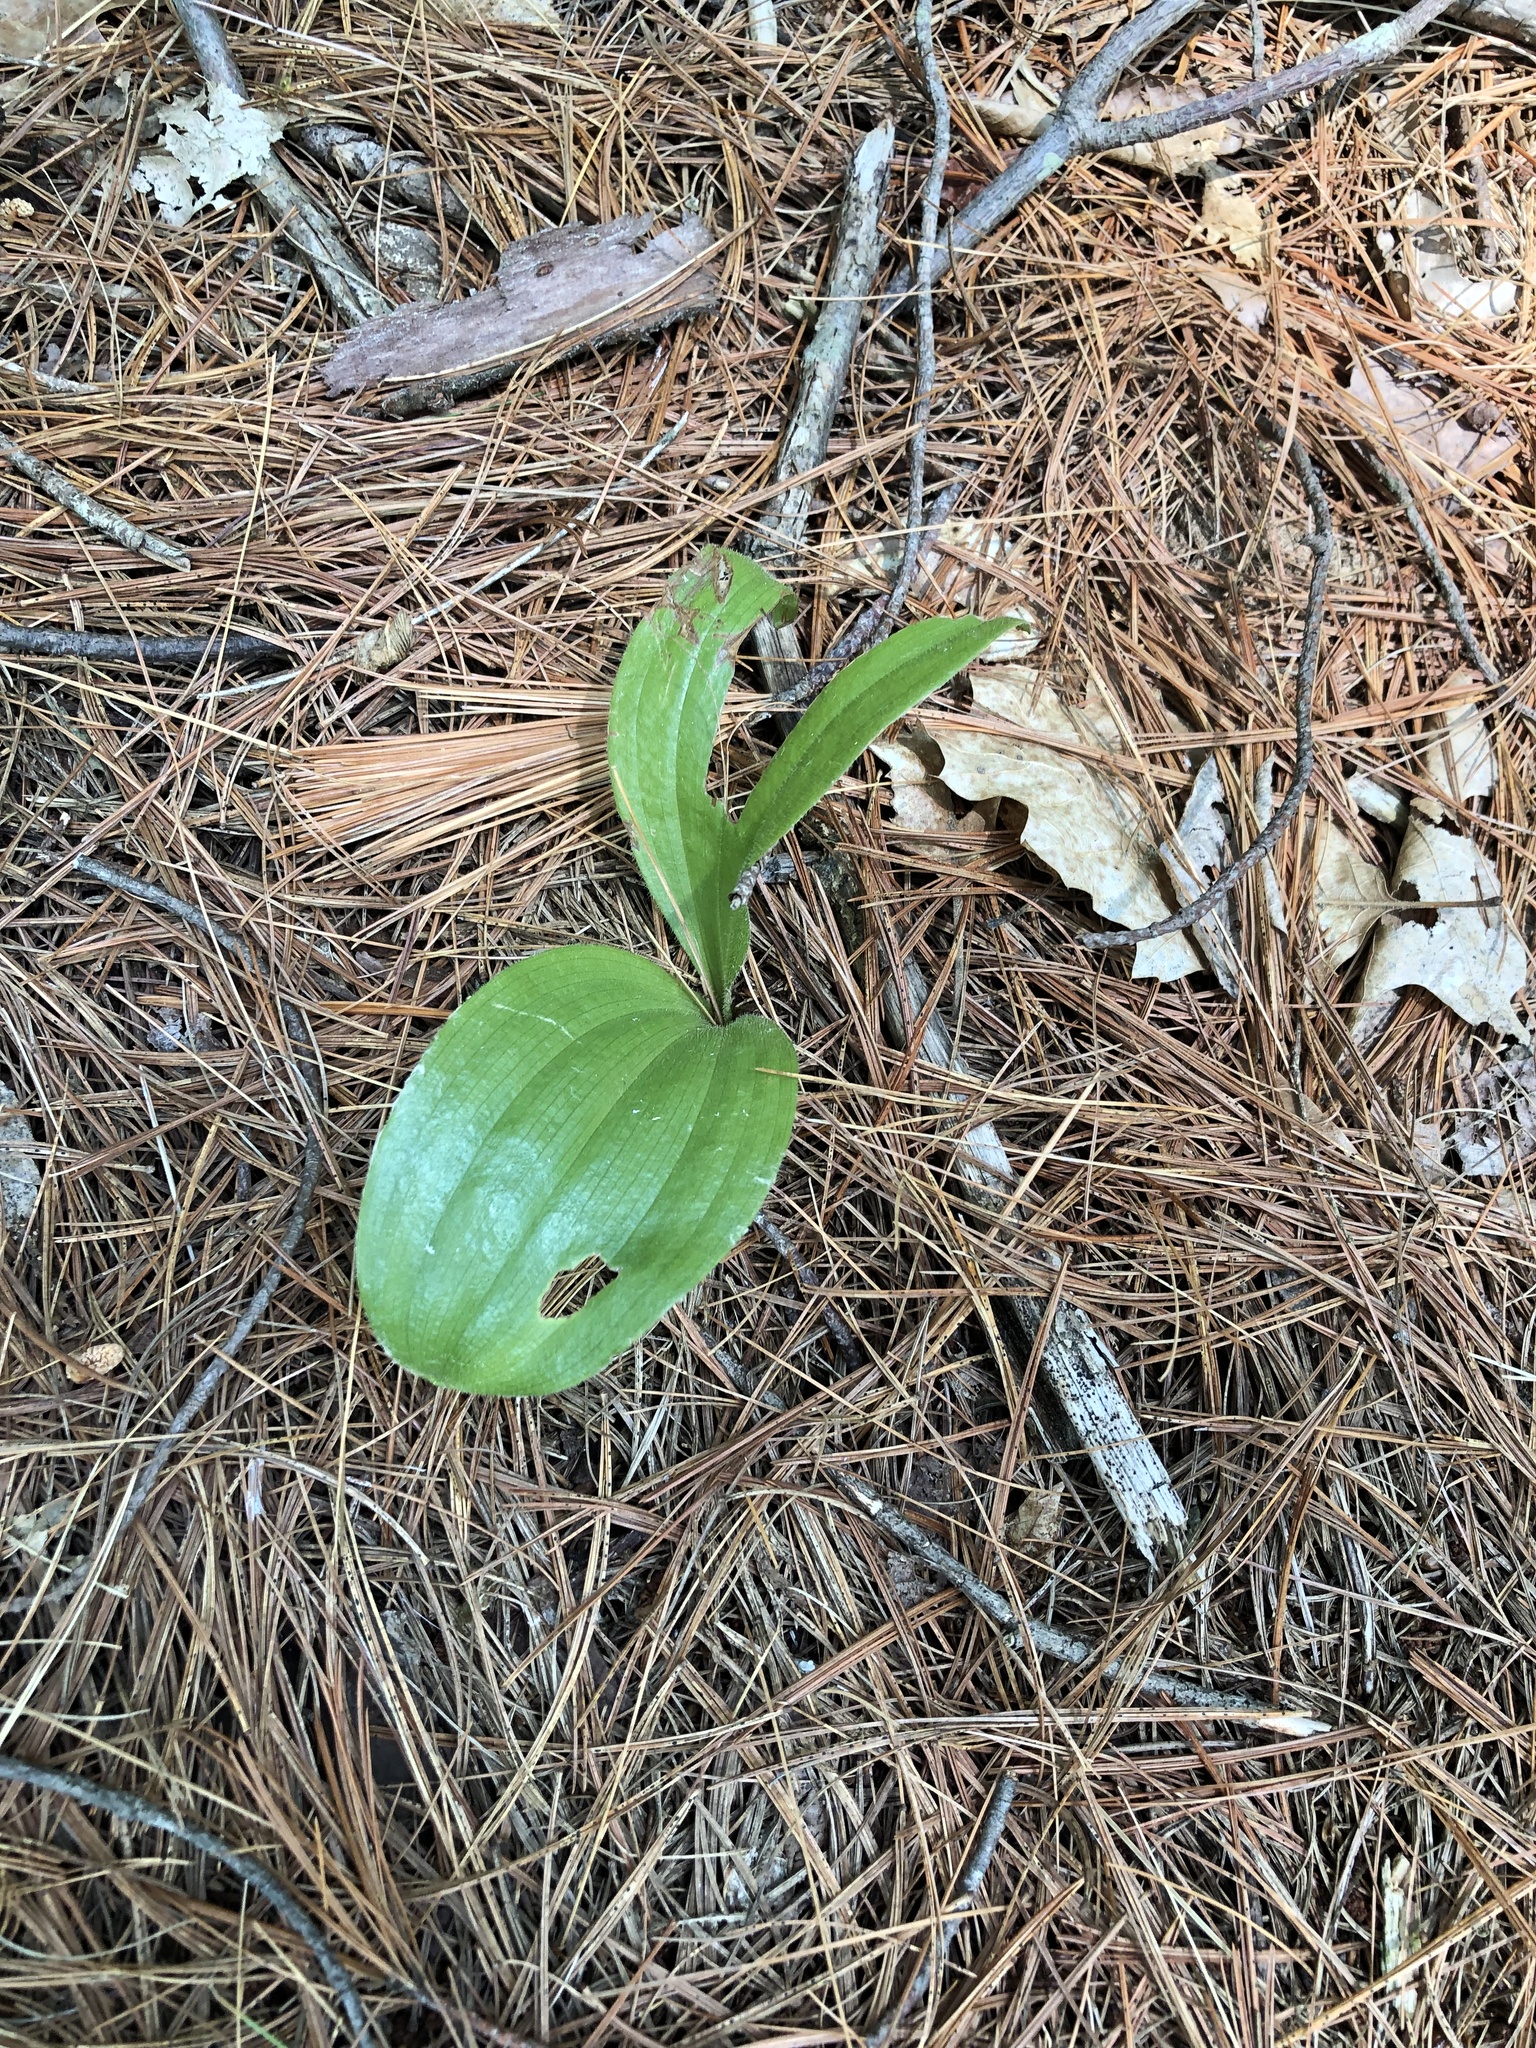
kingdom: Plantae
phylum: Tracheophyta
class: Liliopsida
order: Asparagales
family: Orchidaceae
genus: Cypripedium
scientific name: Cypripedium acaule
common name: Pink lady's-slipper
